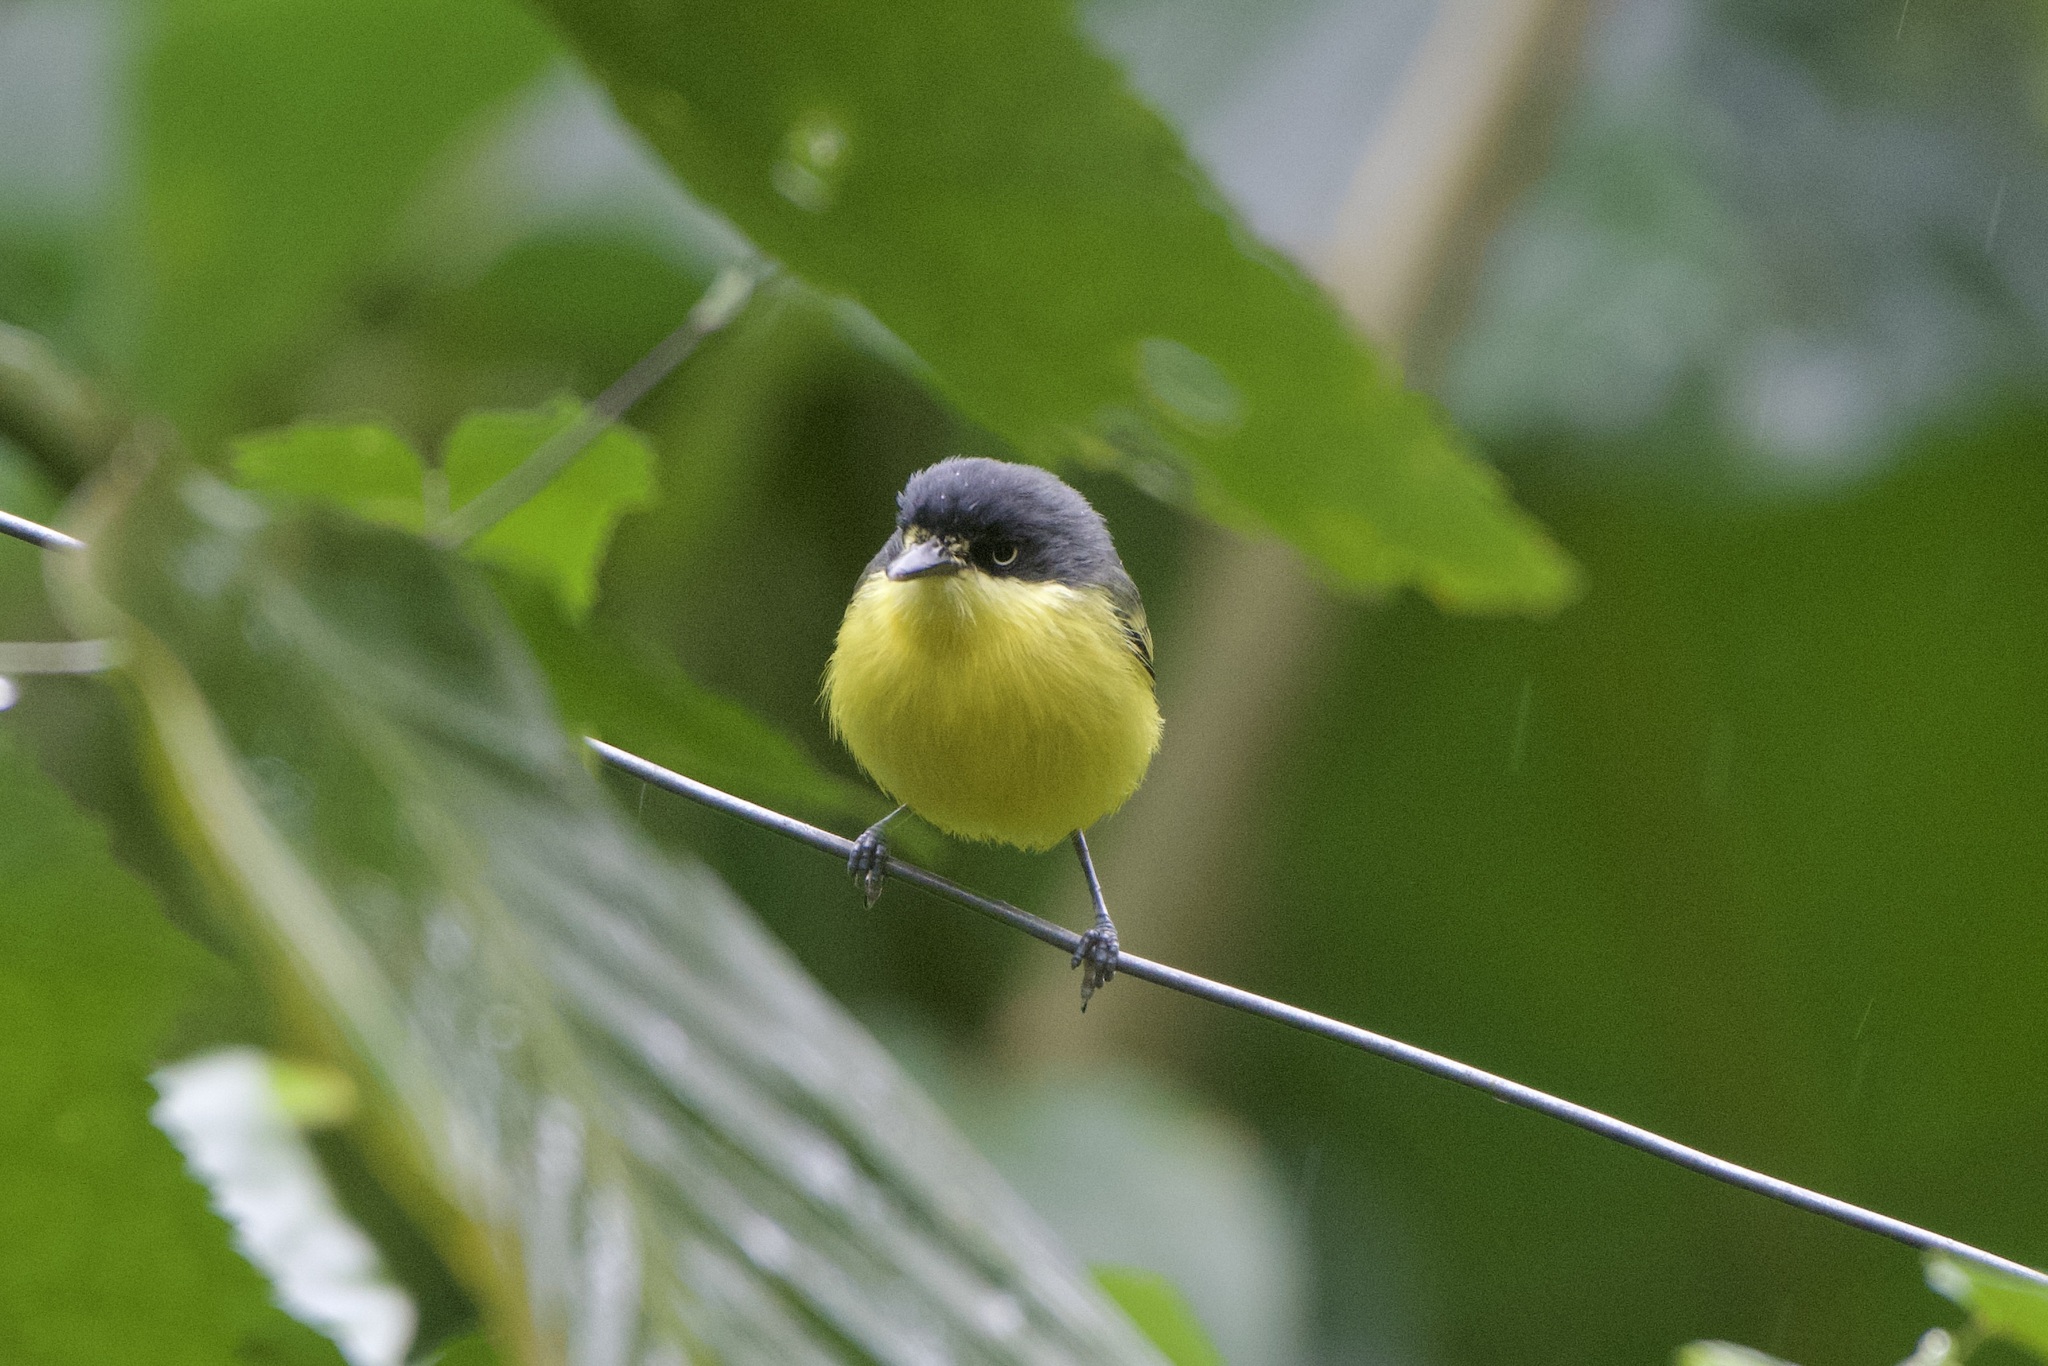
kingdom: Animalia
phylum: Chordata
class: Aves
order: Passeriformes
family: Tyrannidae
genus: Todirostrum
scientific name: Todirostrum cinereum
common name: Common tody-flycatcher
